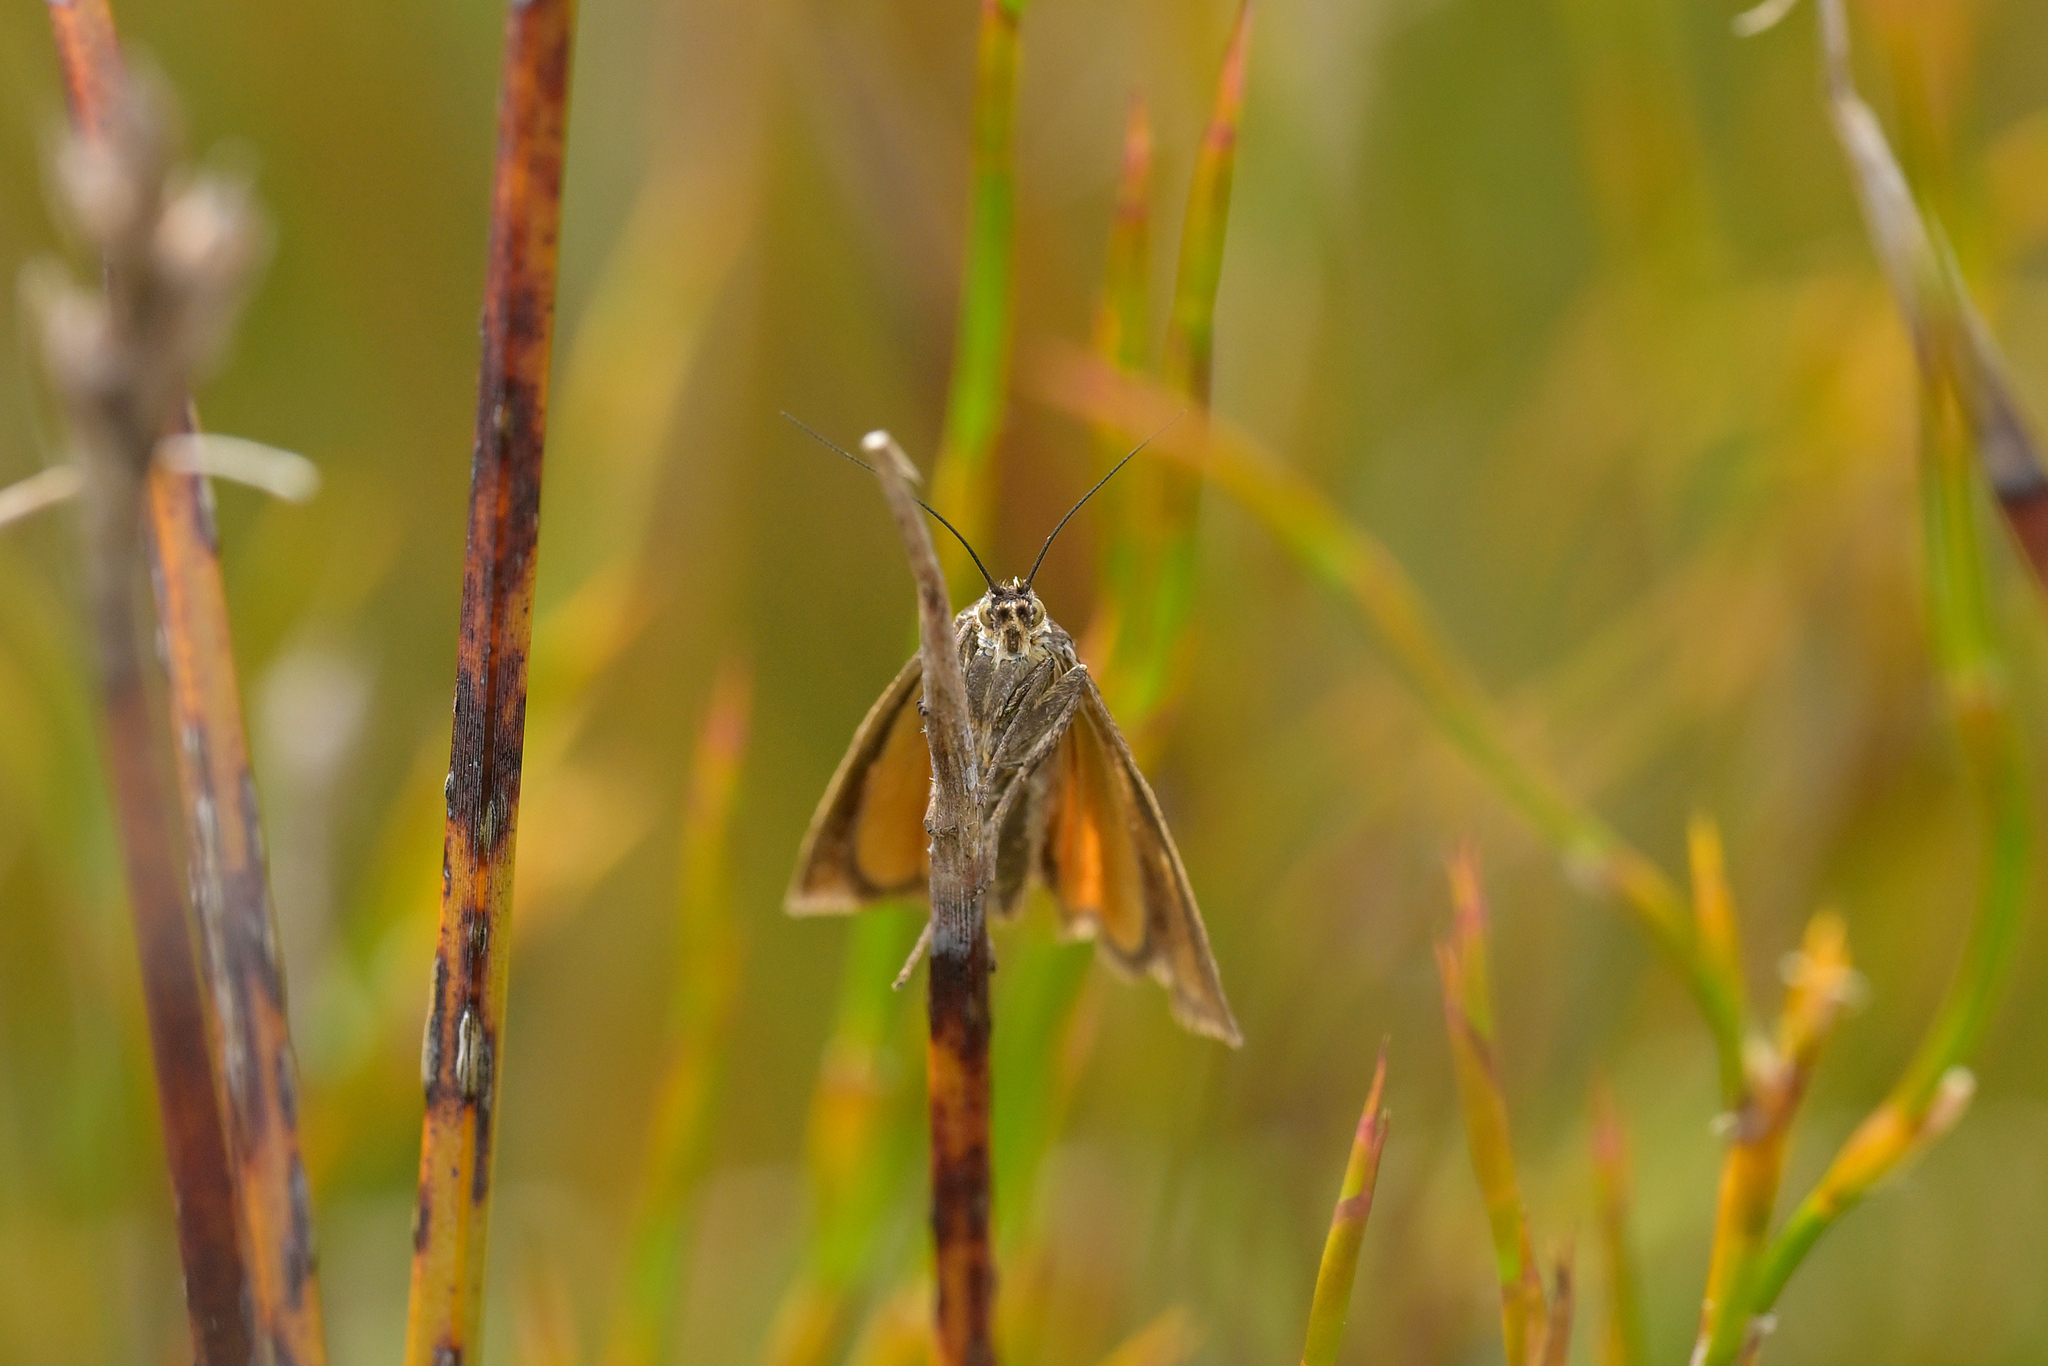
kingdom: Animalia
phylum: Arthropoda
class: Insecta
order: Lepidoptera
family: Crambidae
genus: Orocrambus
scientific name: Orocrambus heliotes
